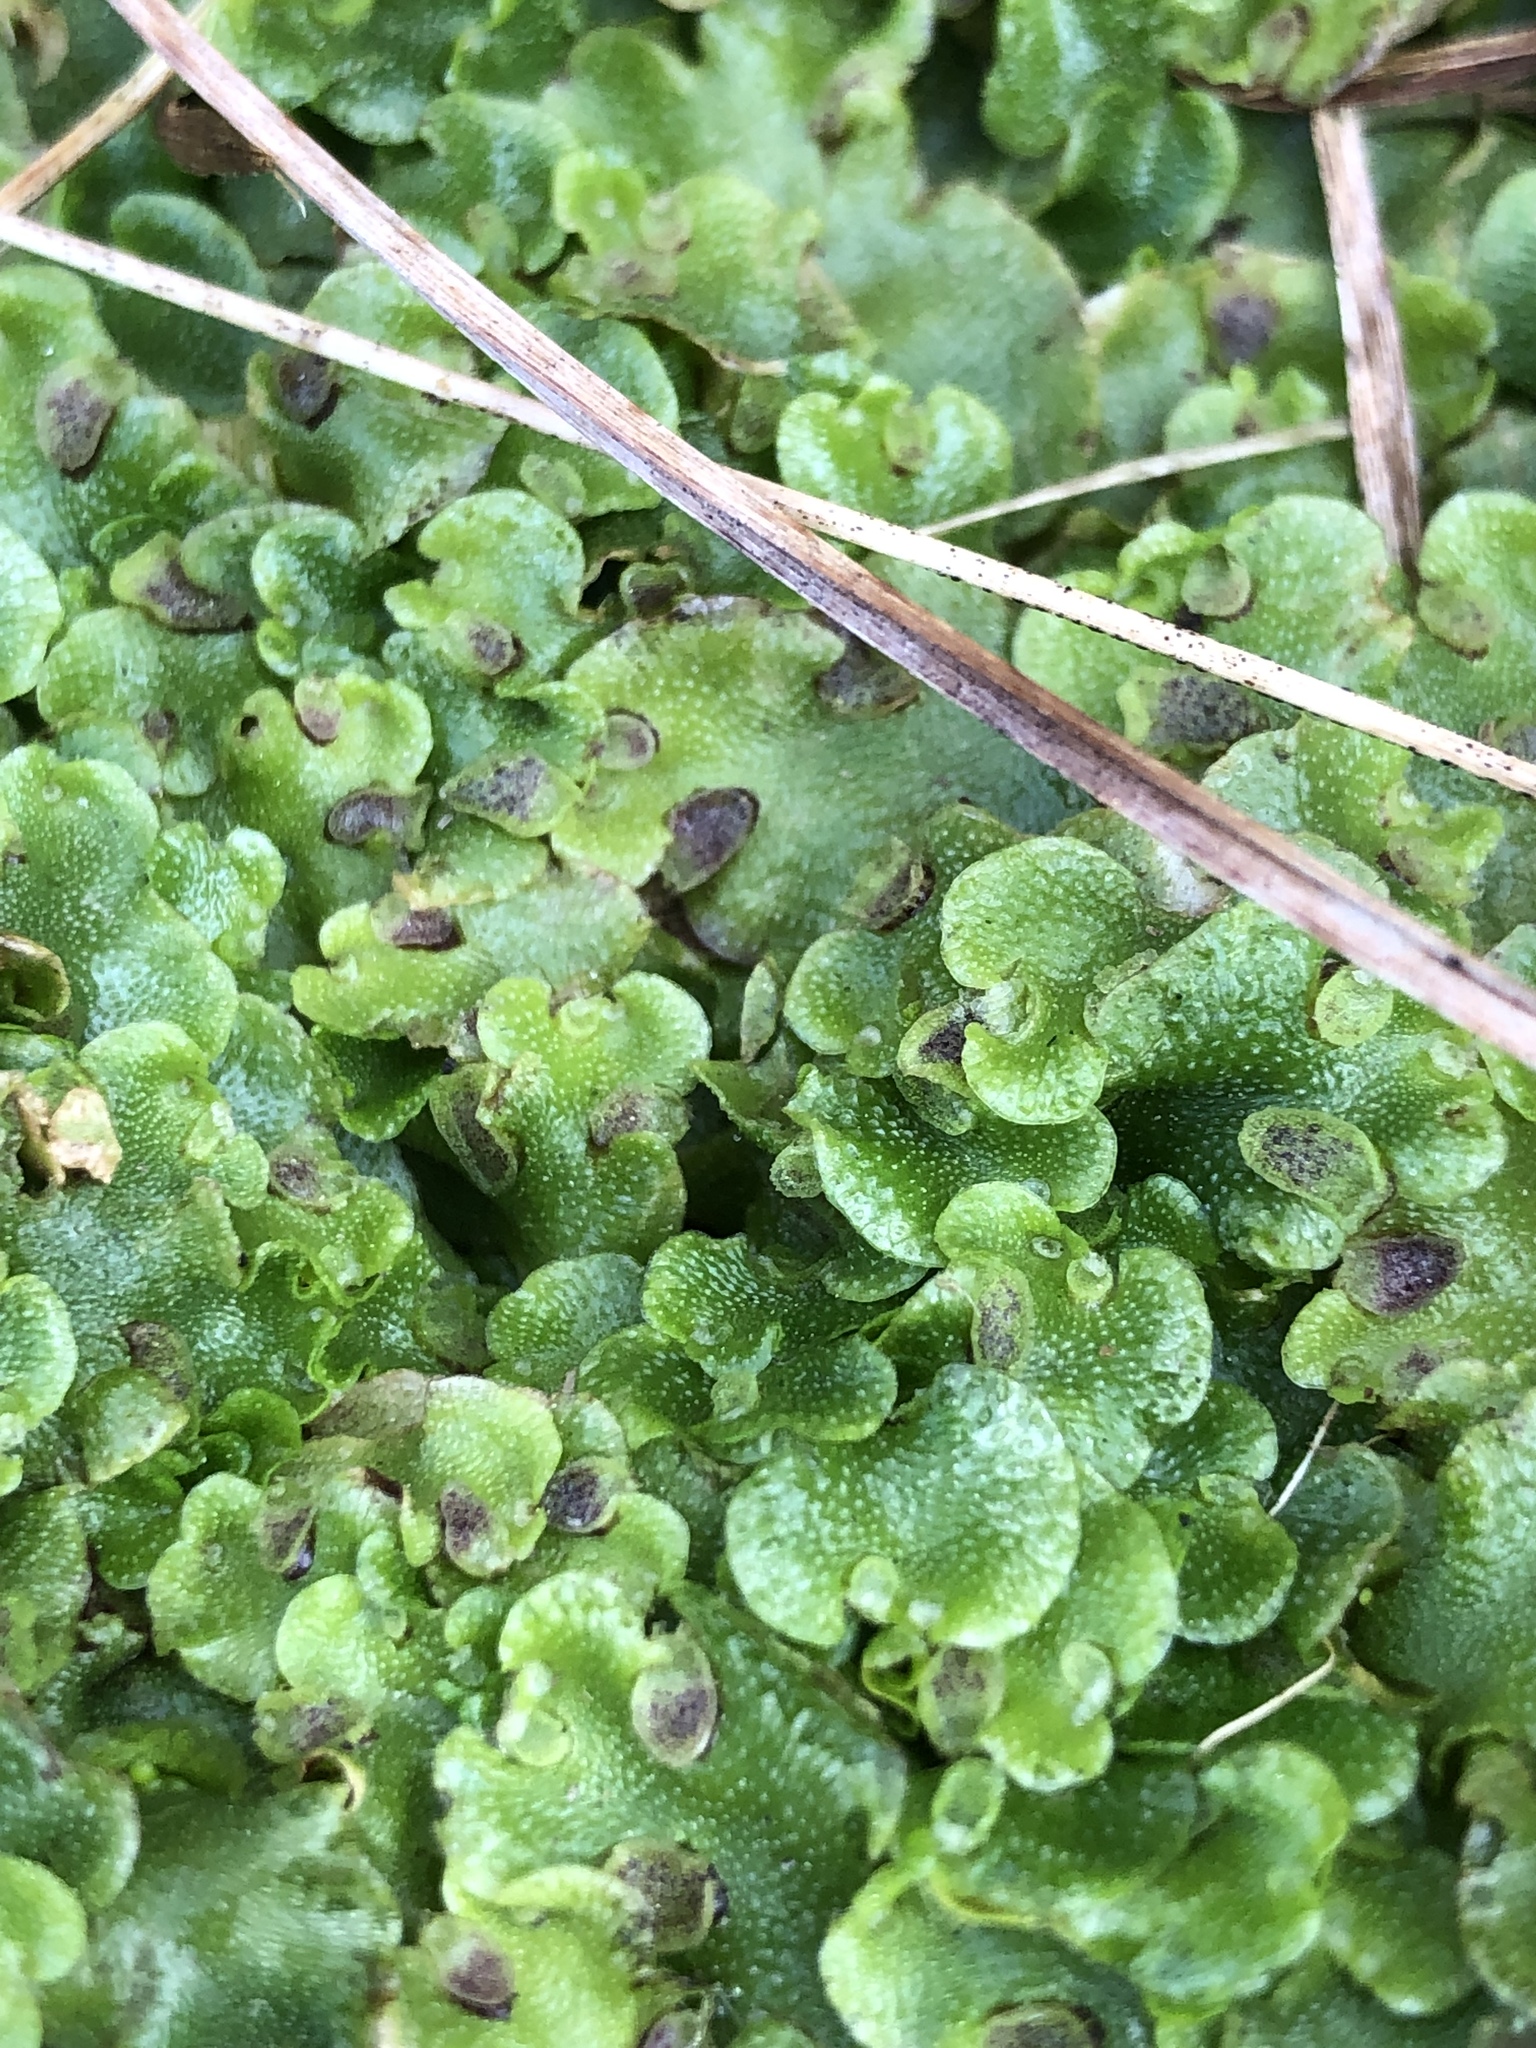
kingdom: Plantae
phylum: Marchantiophyta
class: Marchantiopsida
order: Lunulariales
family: Lunulariaceae
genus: Lunularia
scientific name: Lunularia cruciata
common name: Crescent-cup liverwort
